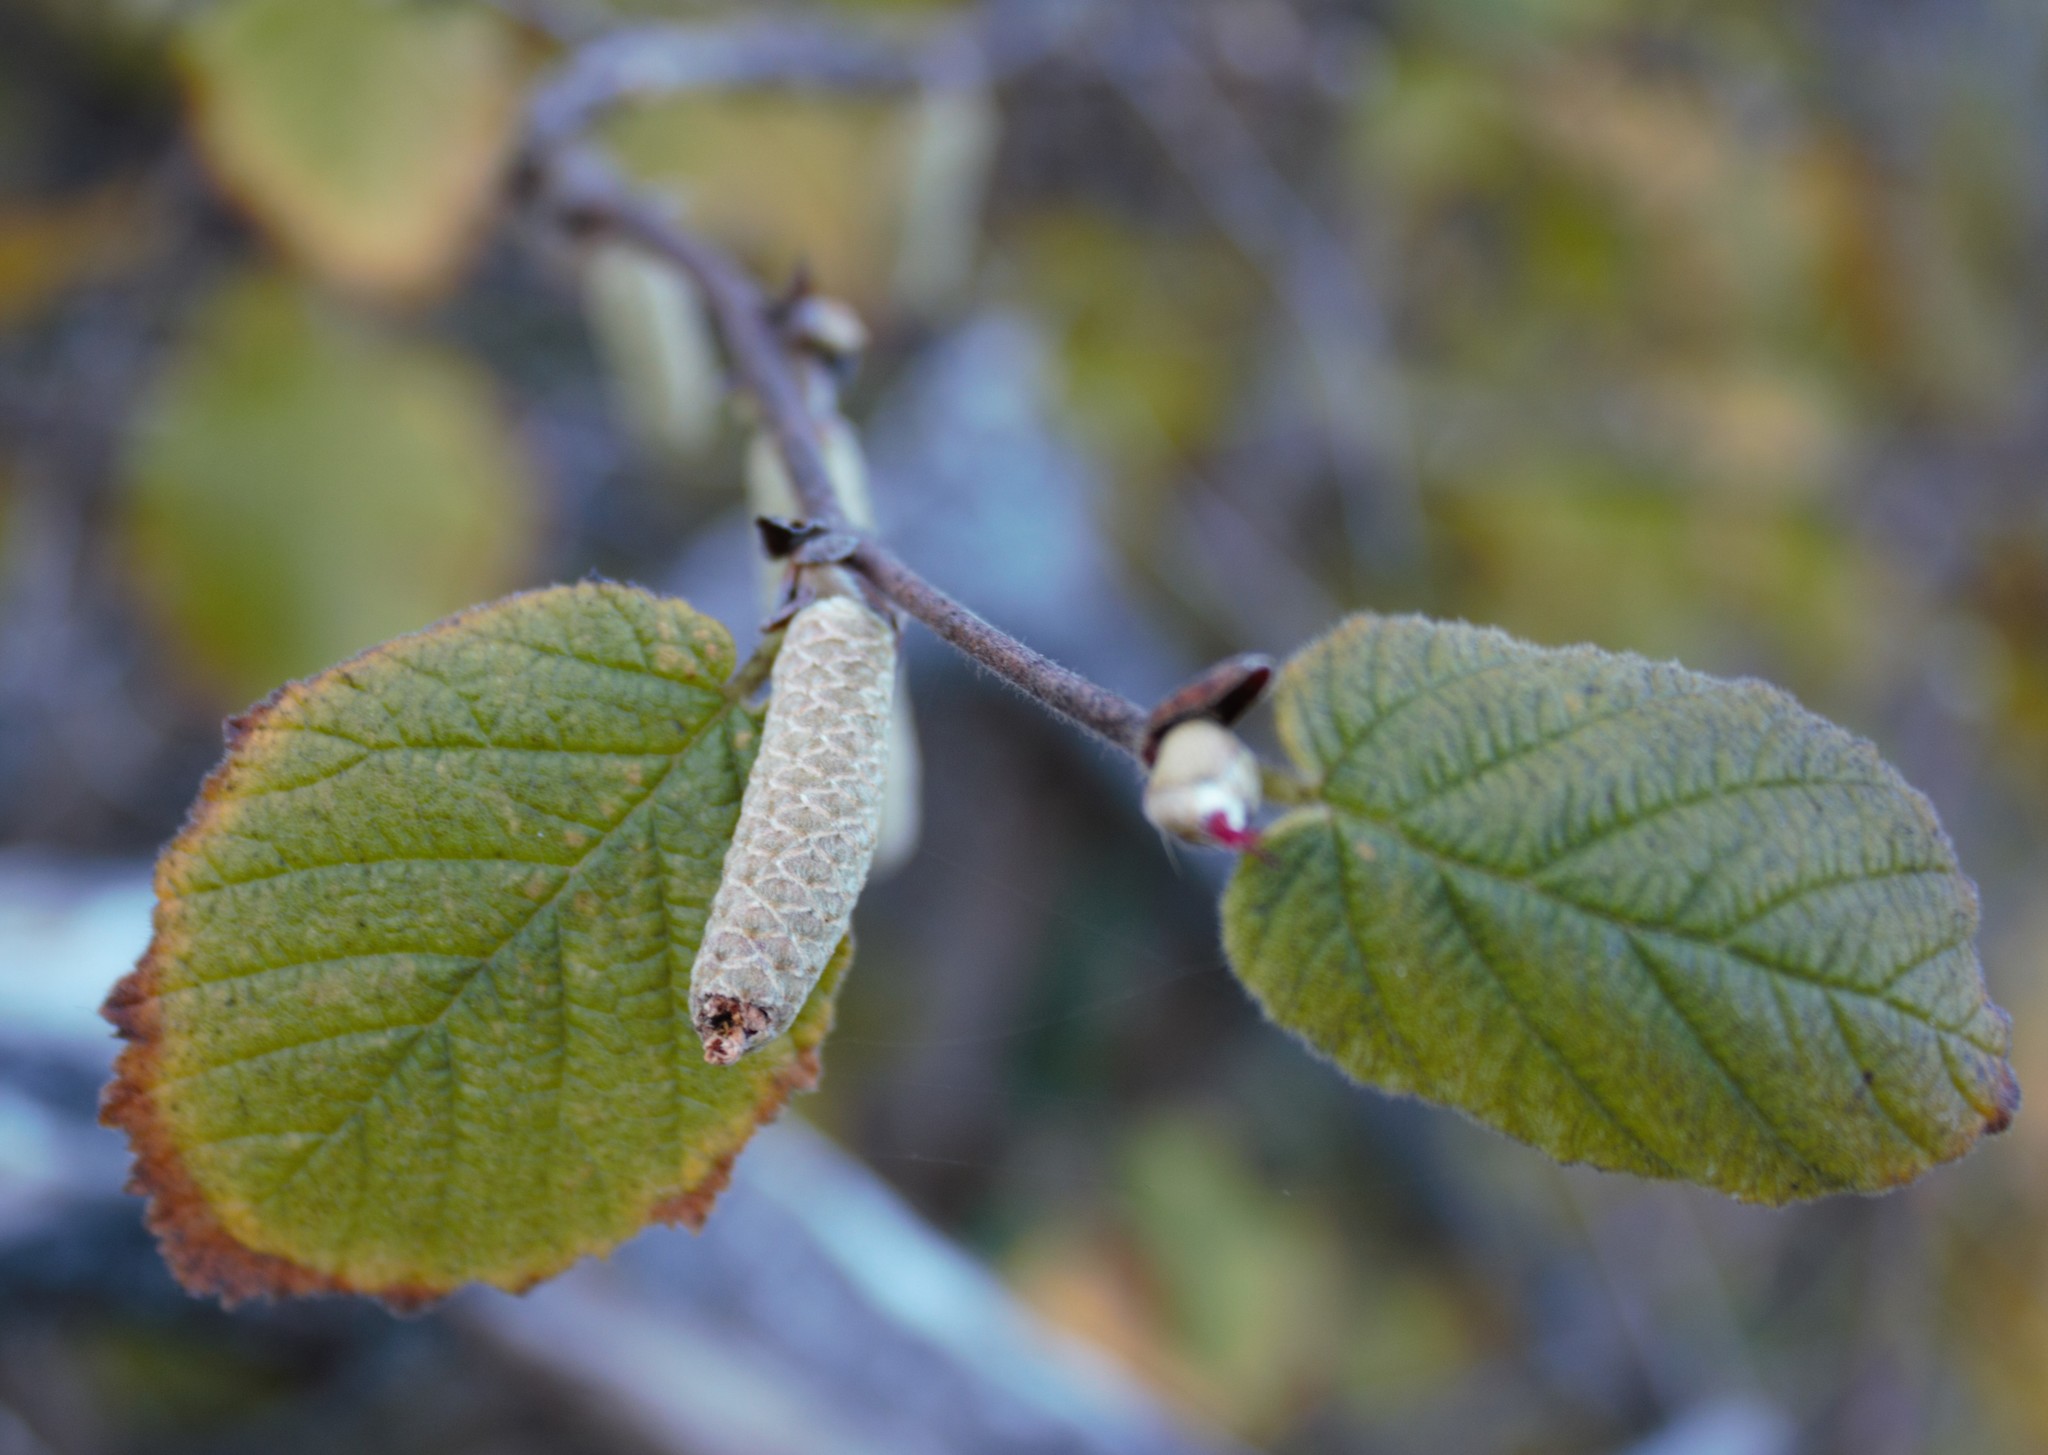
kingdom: Plantae
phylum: Tracheophyta
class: Magnoliopsida
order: Fagales
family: Betulaceae
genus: Corylus
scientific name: Corylus cornuta
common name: Beaked hazel
